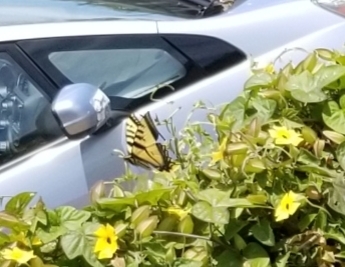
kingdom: Animalia
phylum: Arthropoda
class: Insecta
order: Lepidoptera
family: Papilionidae
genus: Papilio
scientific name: Papilio rutulus
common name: Western tiger swallowtail
